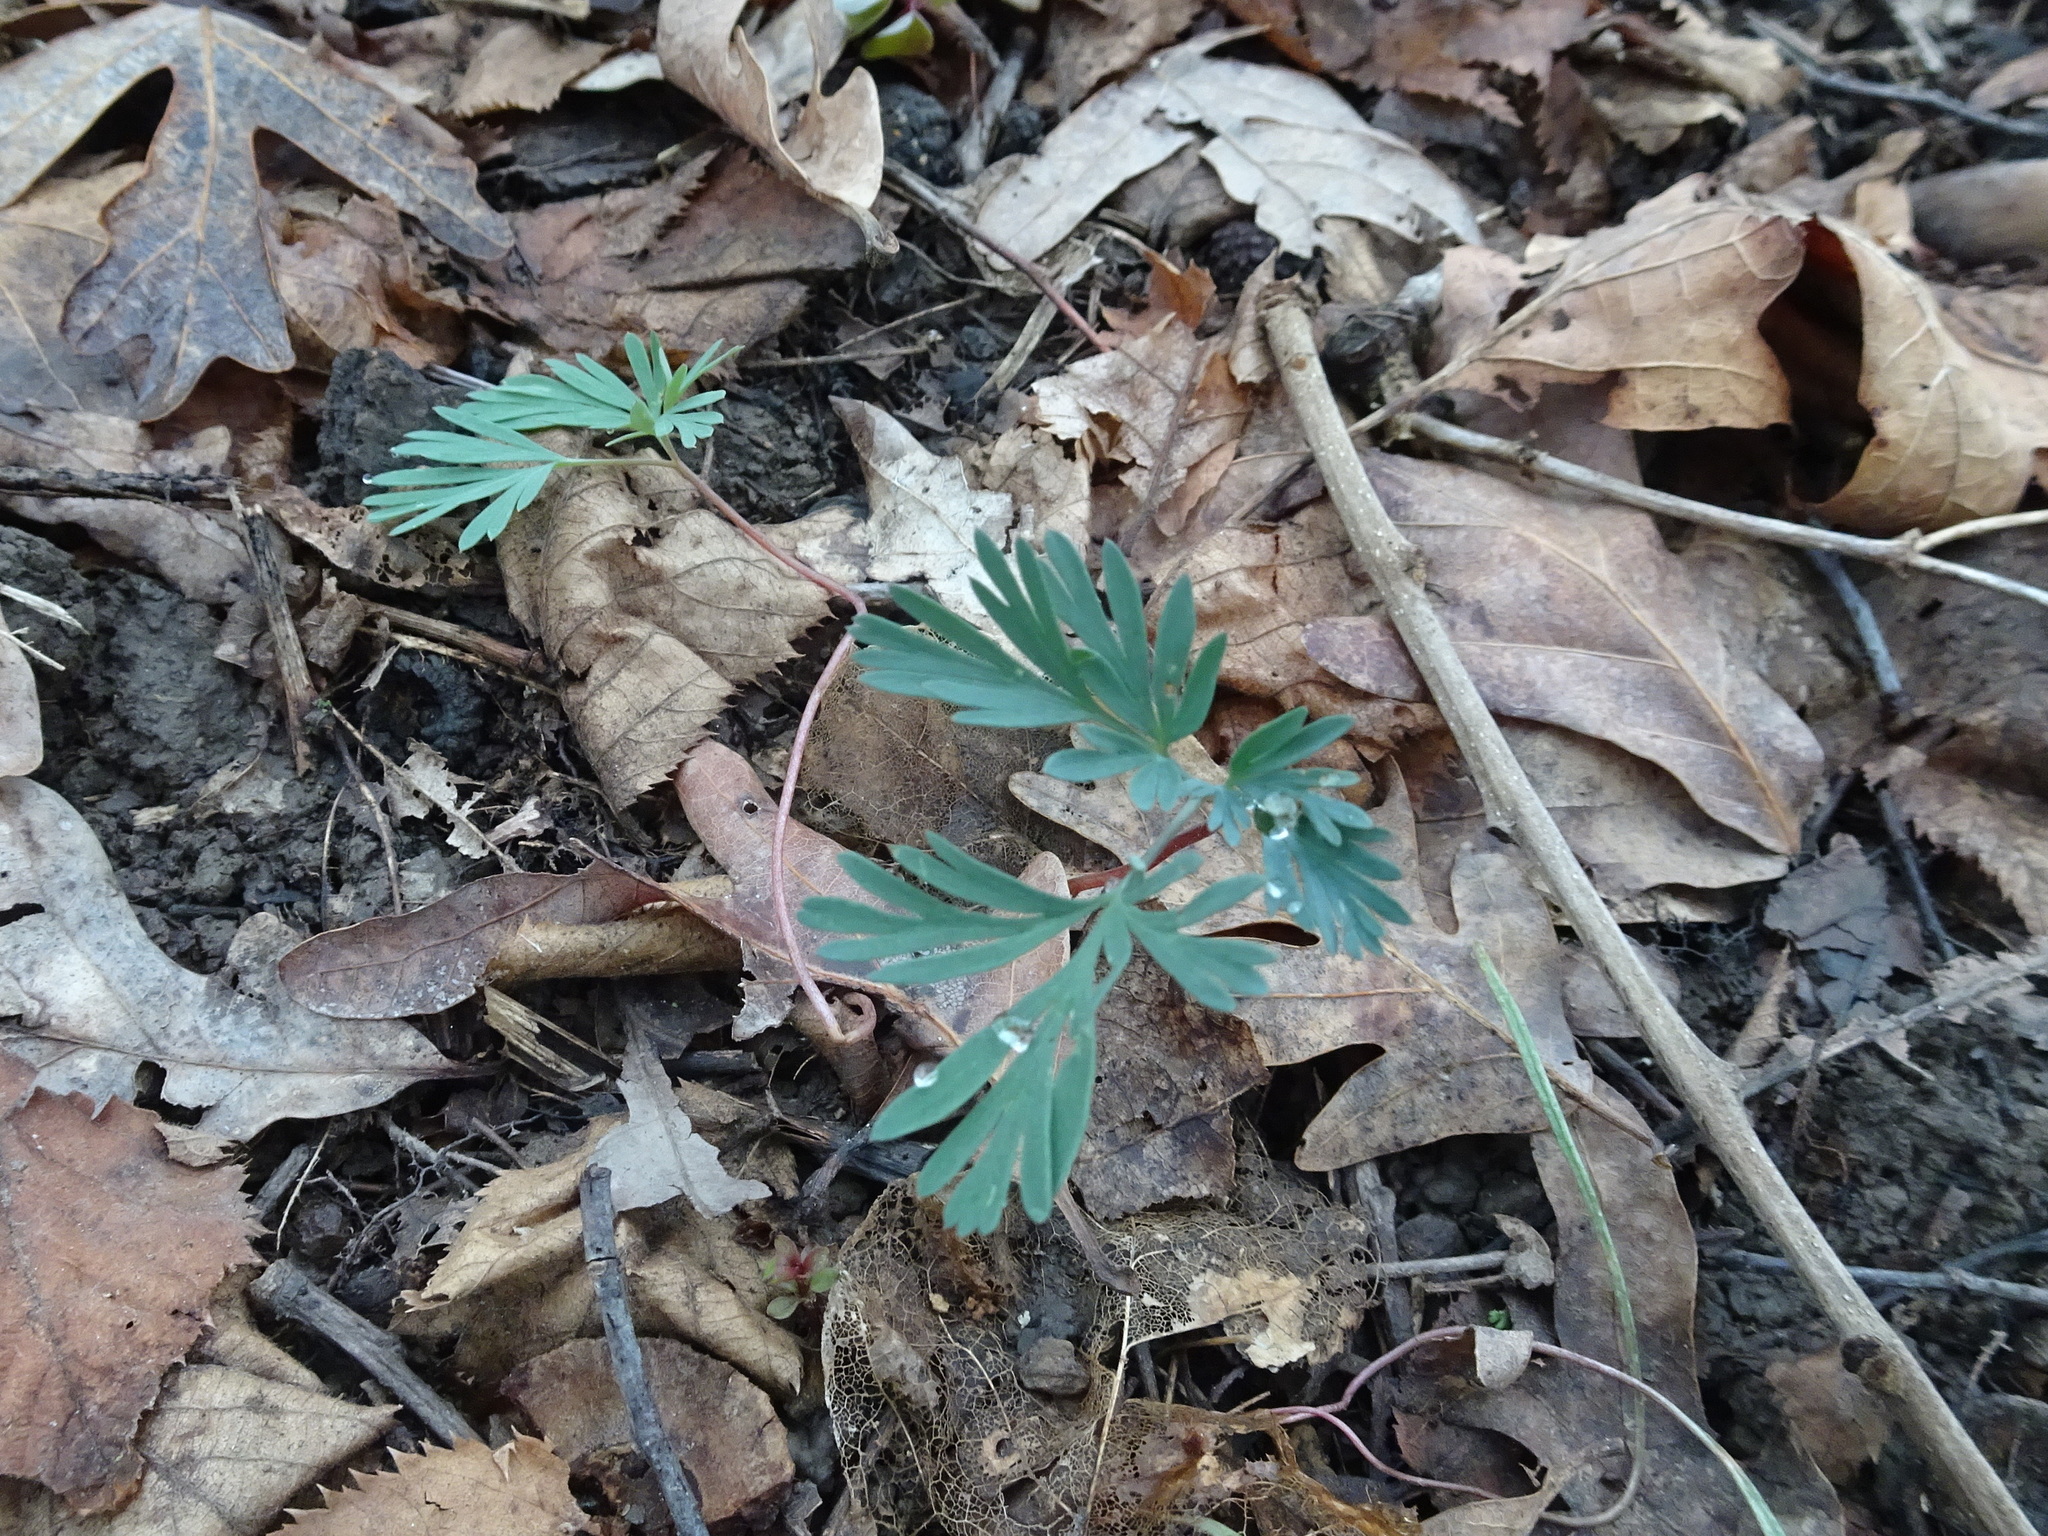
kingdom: Plantae
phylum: Tracheophyta
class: Magnoliopsida
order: Ranunculales
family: Papaveraceae
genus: Dicentra
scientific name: Dicentra cucullaria
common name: Dutchman's breeches
